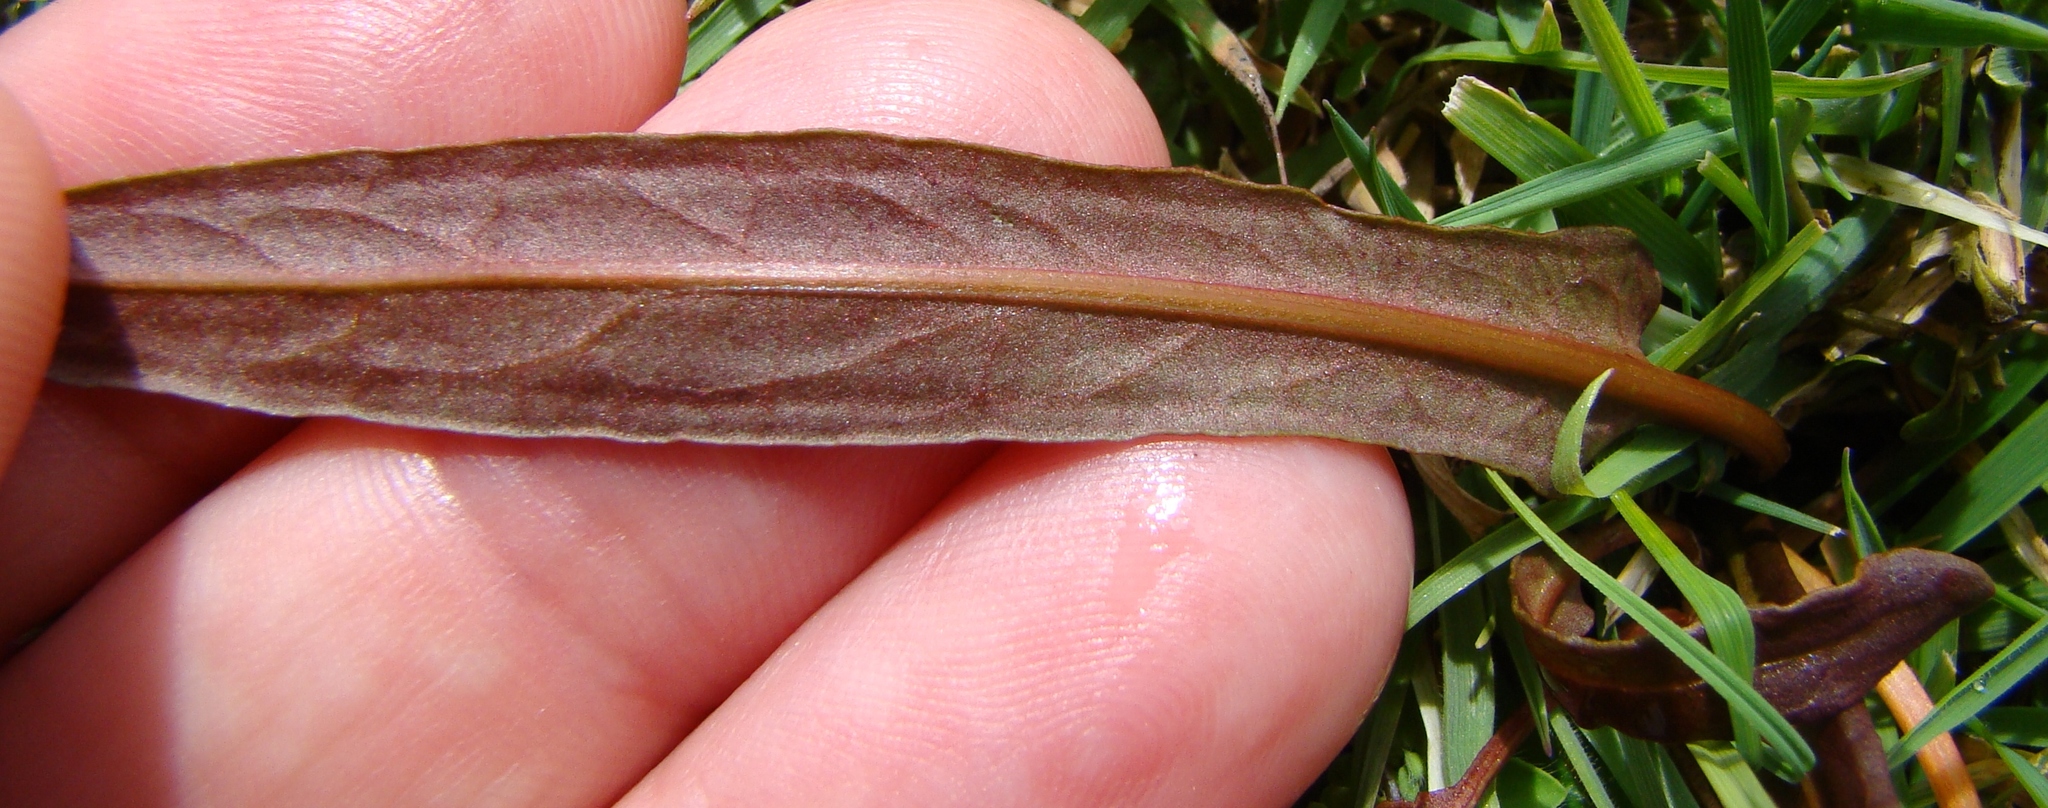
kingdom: Plantae
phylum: Tracheophyta
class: Magnoliopsida
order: Caryophyllales
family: Polygonaceae
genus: Rumex
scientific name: Rumex flexuosus
